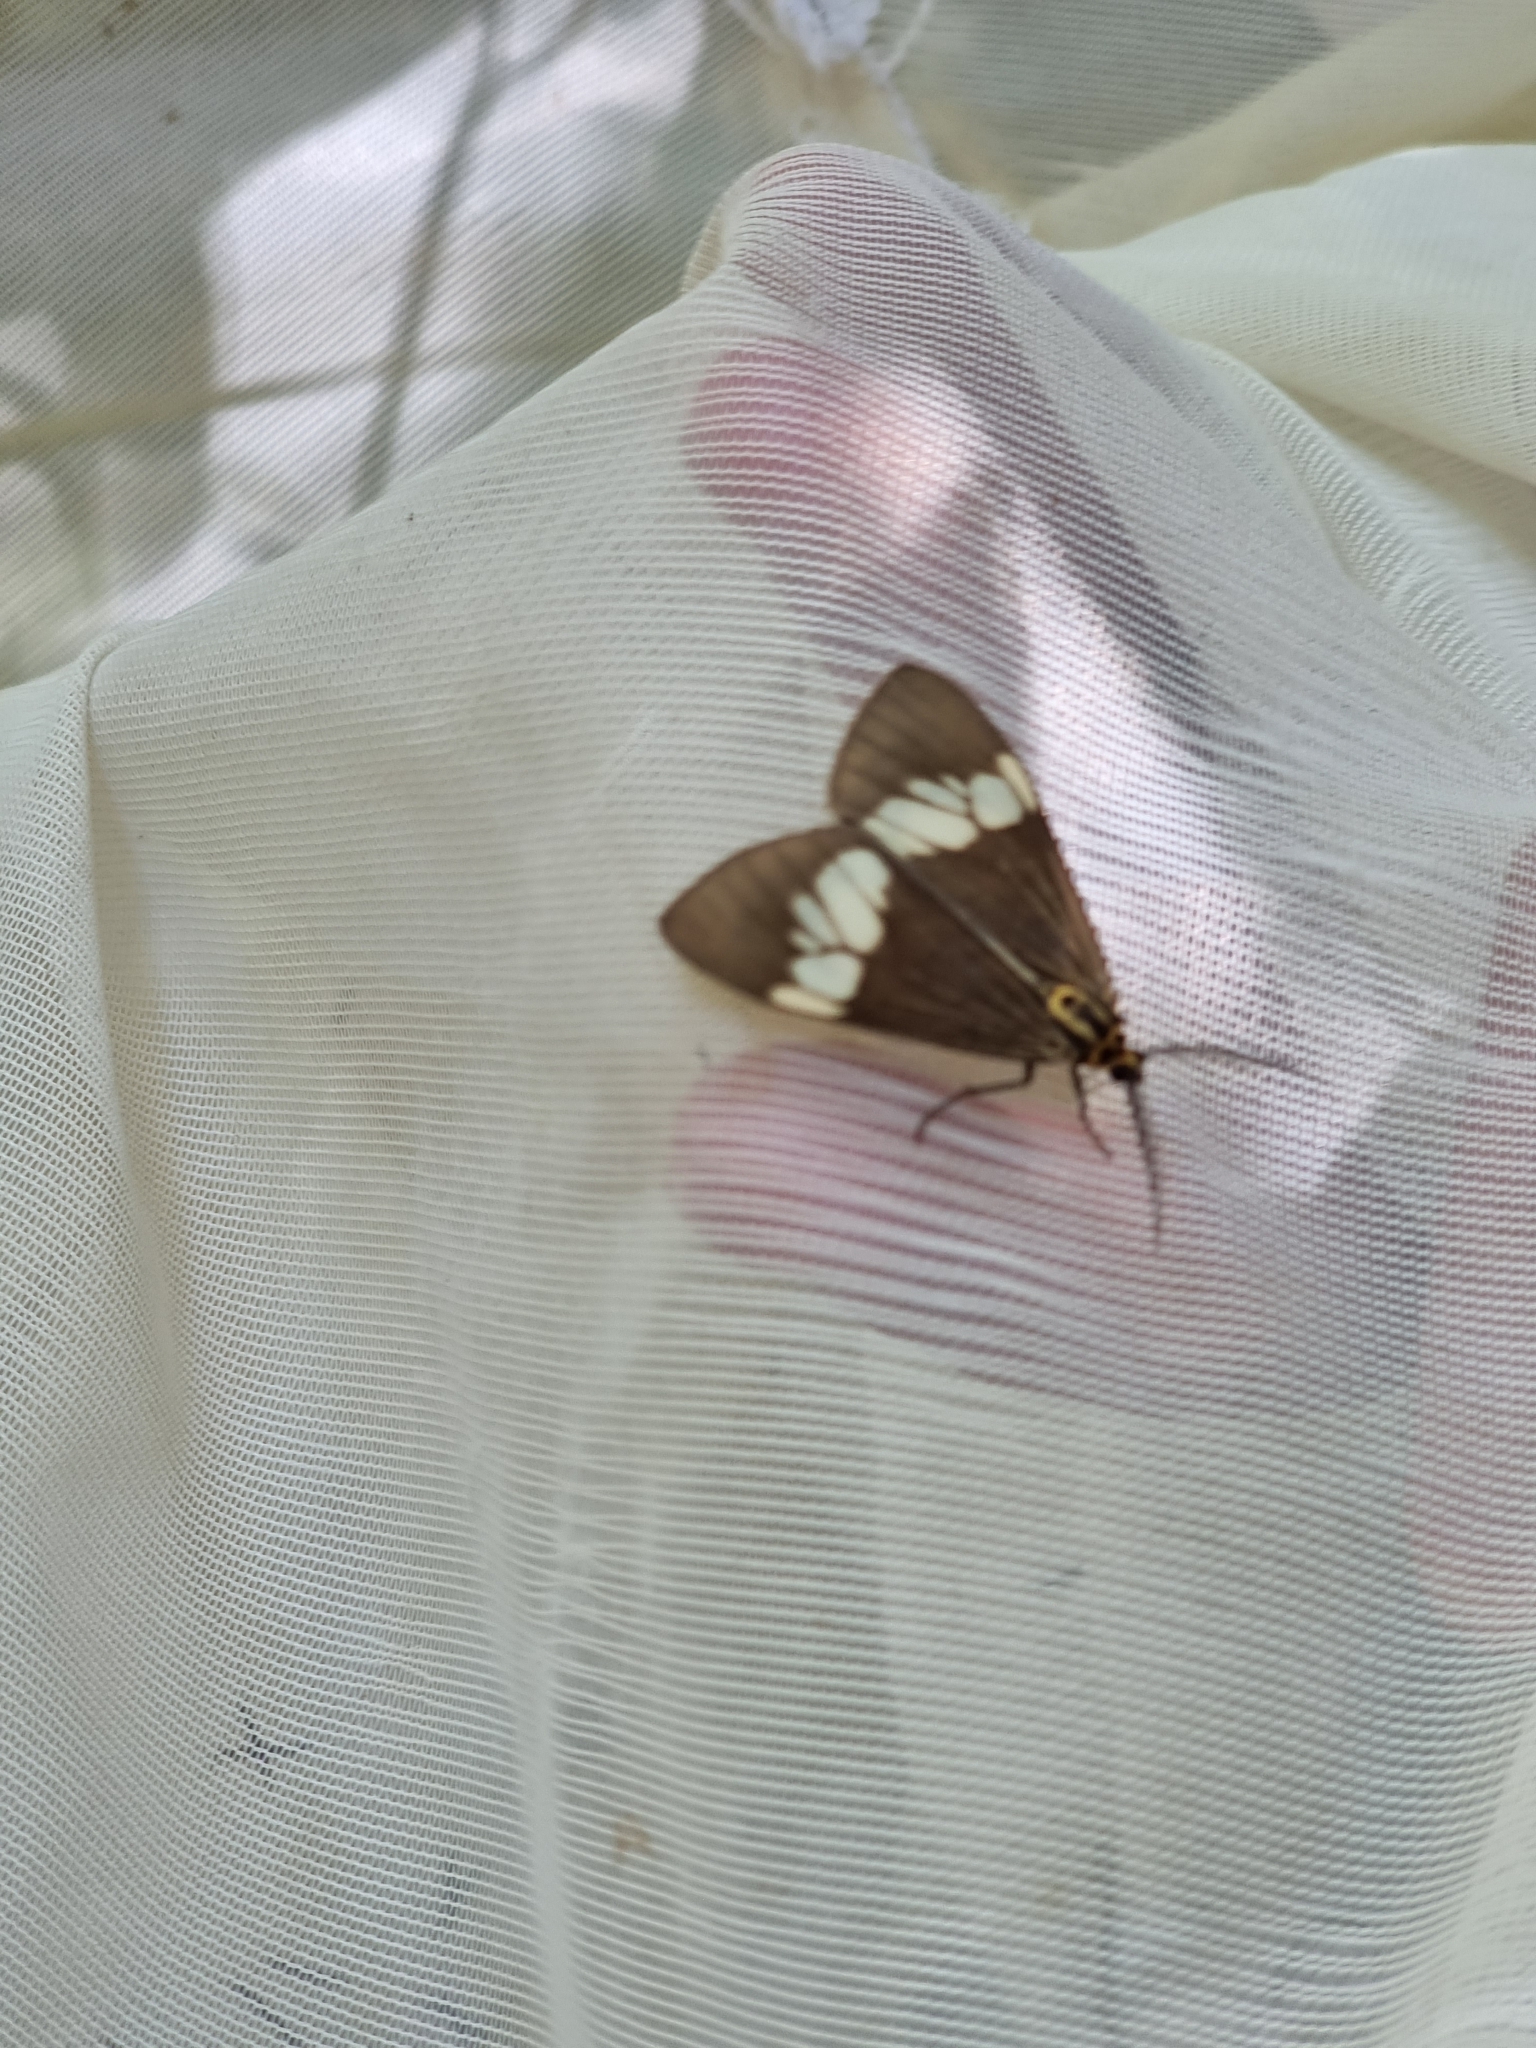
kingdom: Animalia
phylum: Arthropoda
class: Insecta
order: Lepidoptera
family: Erebidae
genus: Nyctemera
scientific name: Nyctemera baulus
